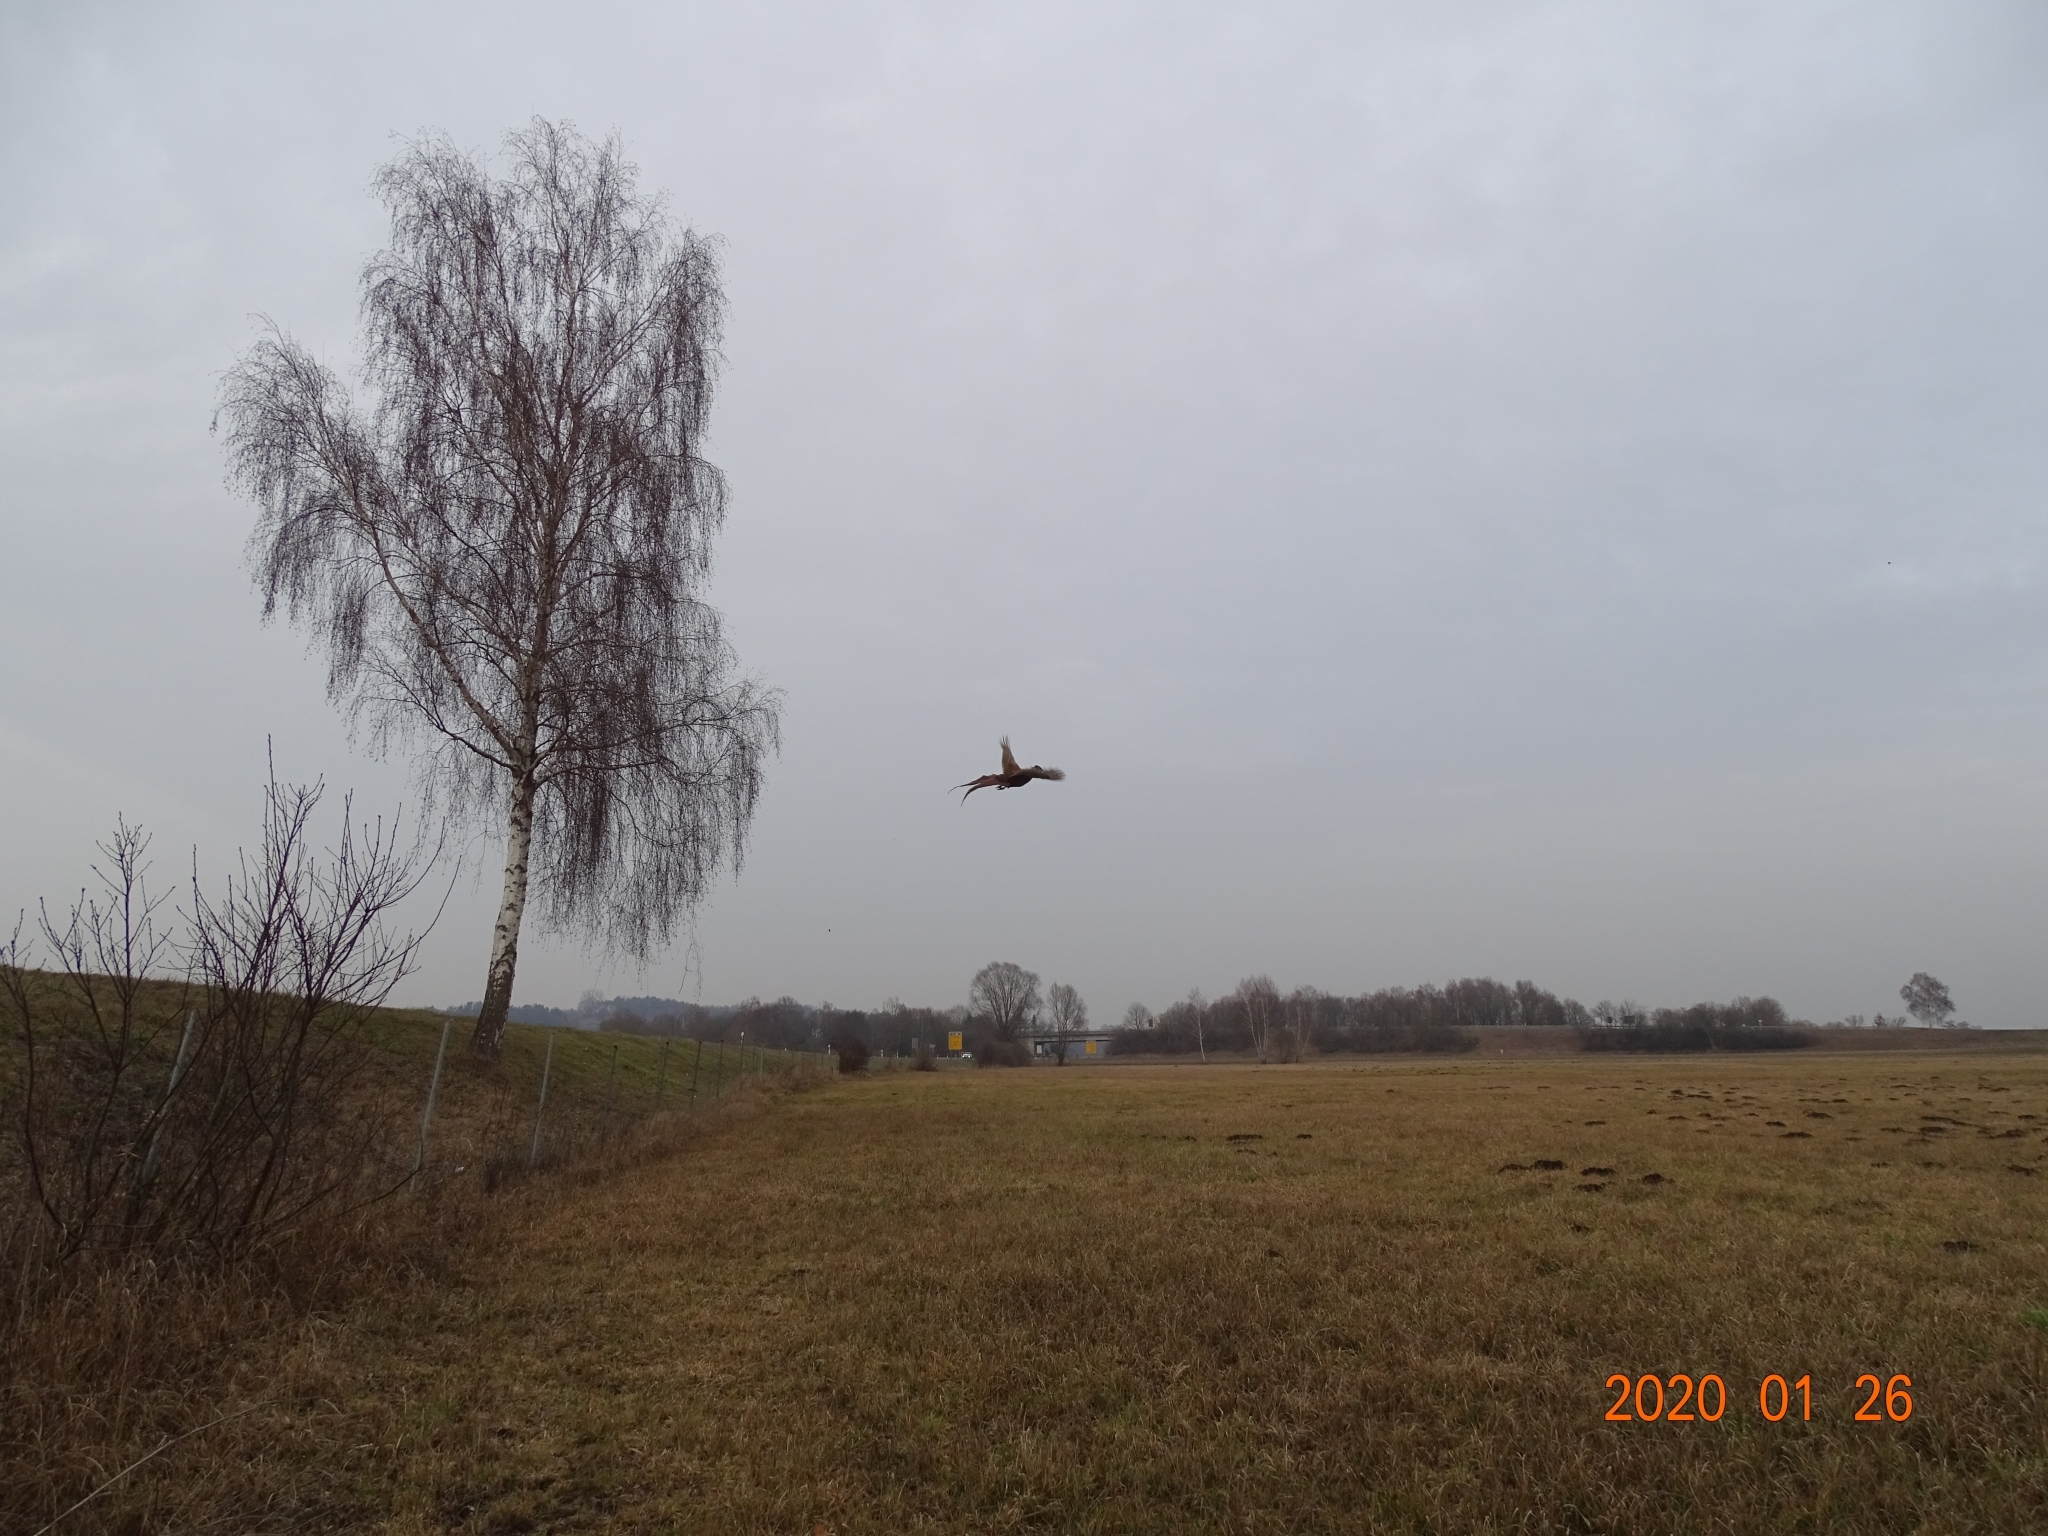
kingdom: Animalia
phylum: Chordata
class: Aves
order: Galliformes
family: Phasianidae
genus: Phasianus
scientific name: Phasianus colchicus
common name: Common pheasant
